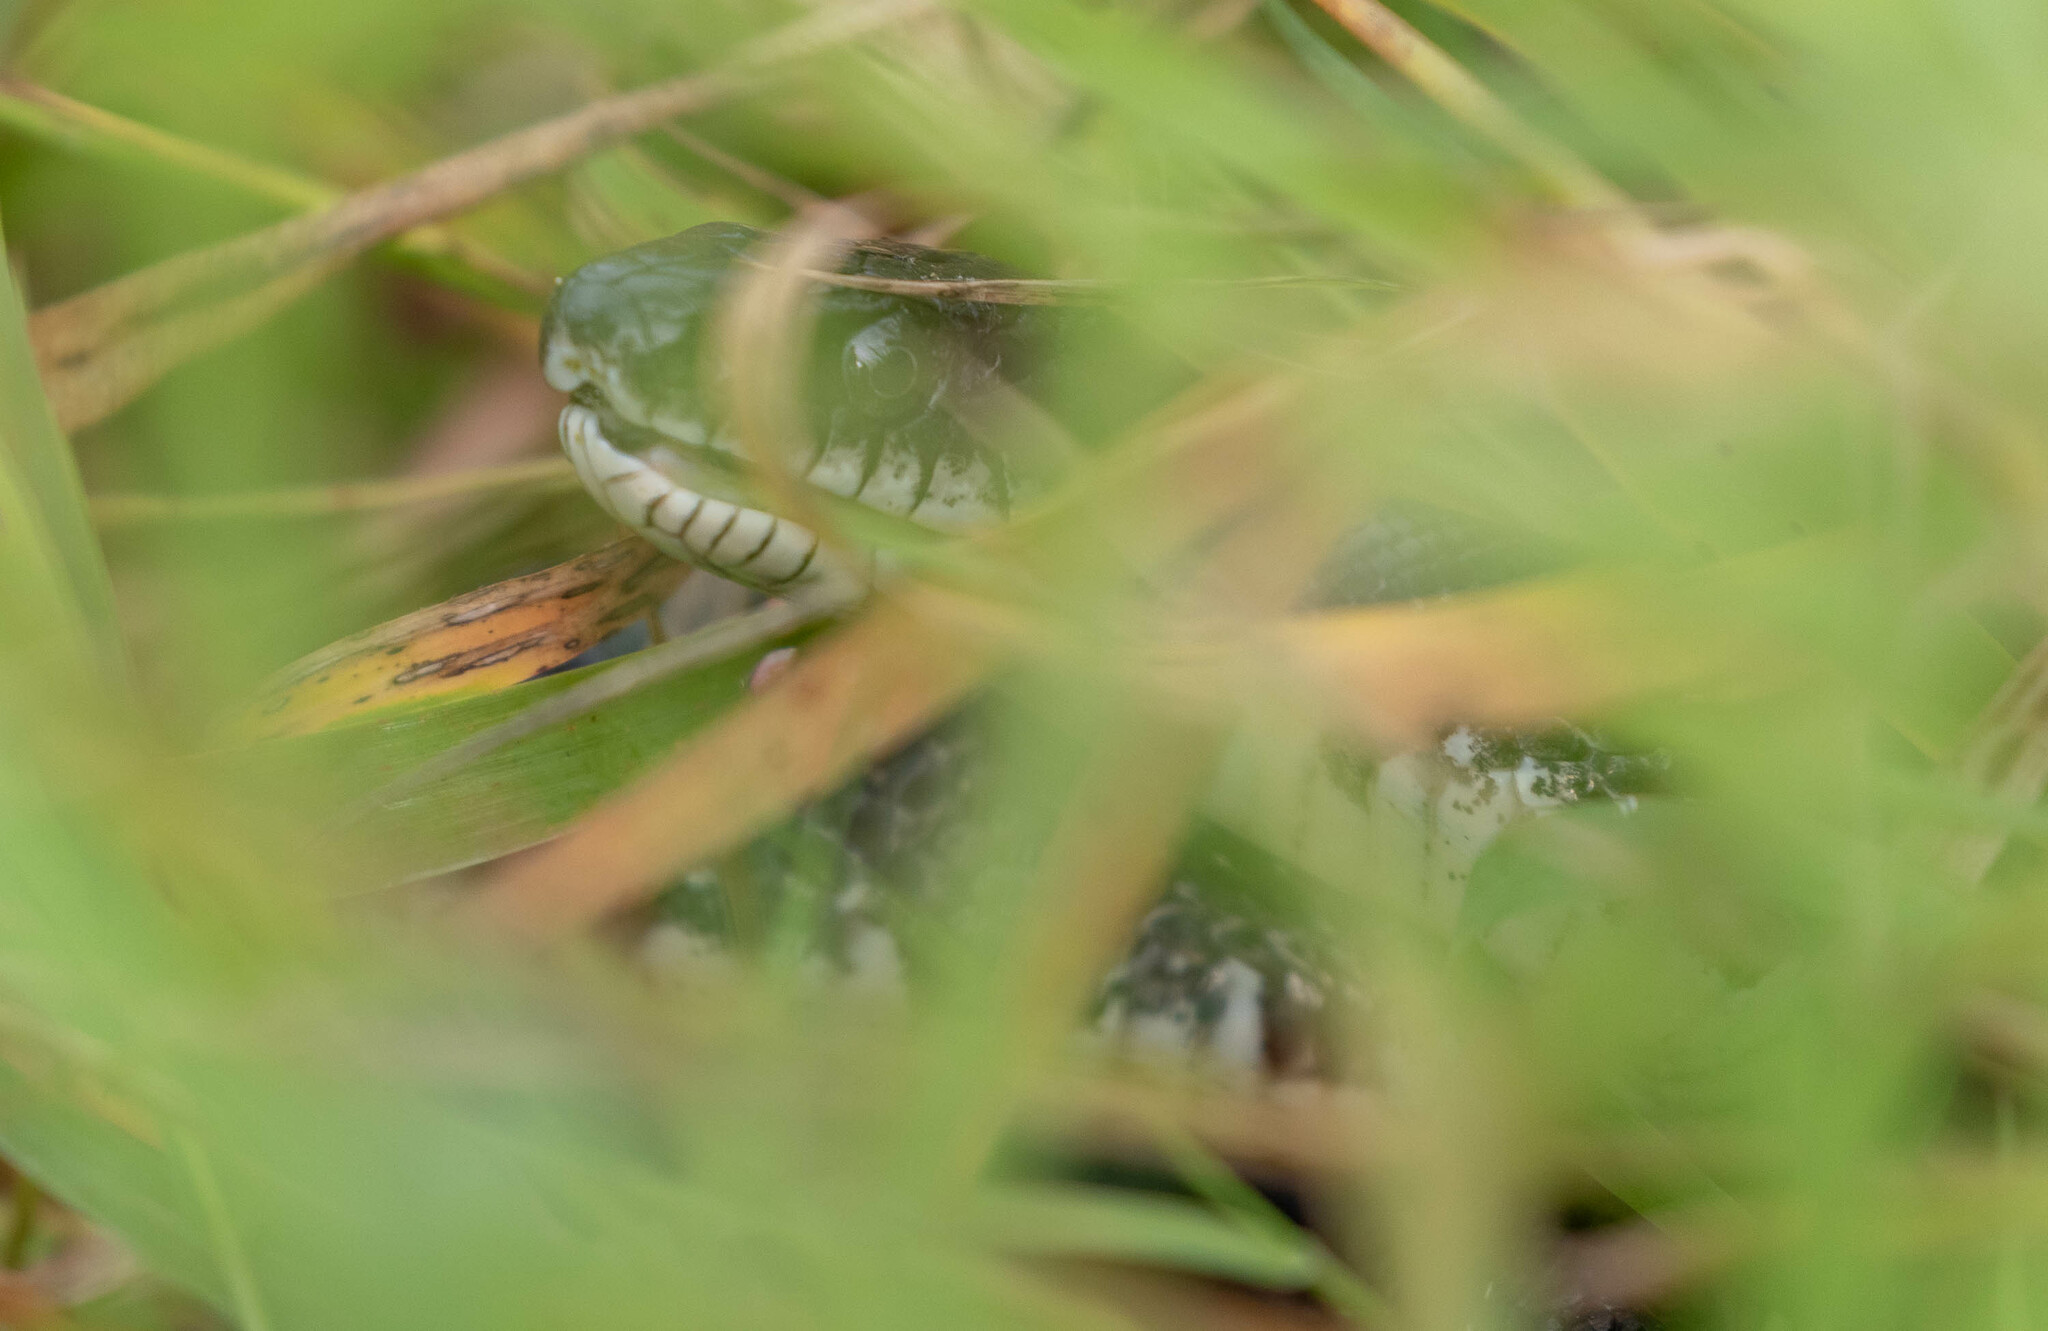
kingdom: Animalia
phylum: Chordata
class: Squamata
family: Colubridae
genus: Pantherophis
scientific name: Pantherophis
